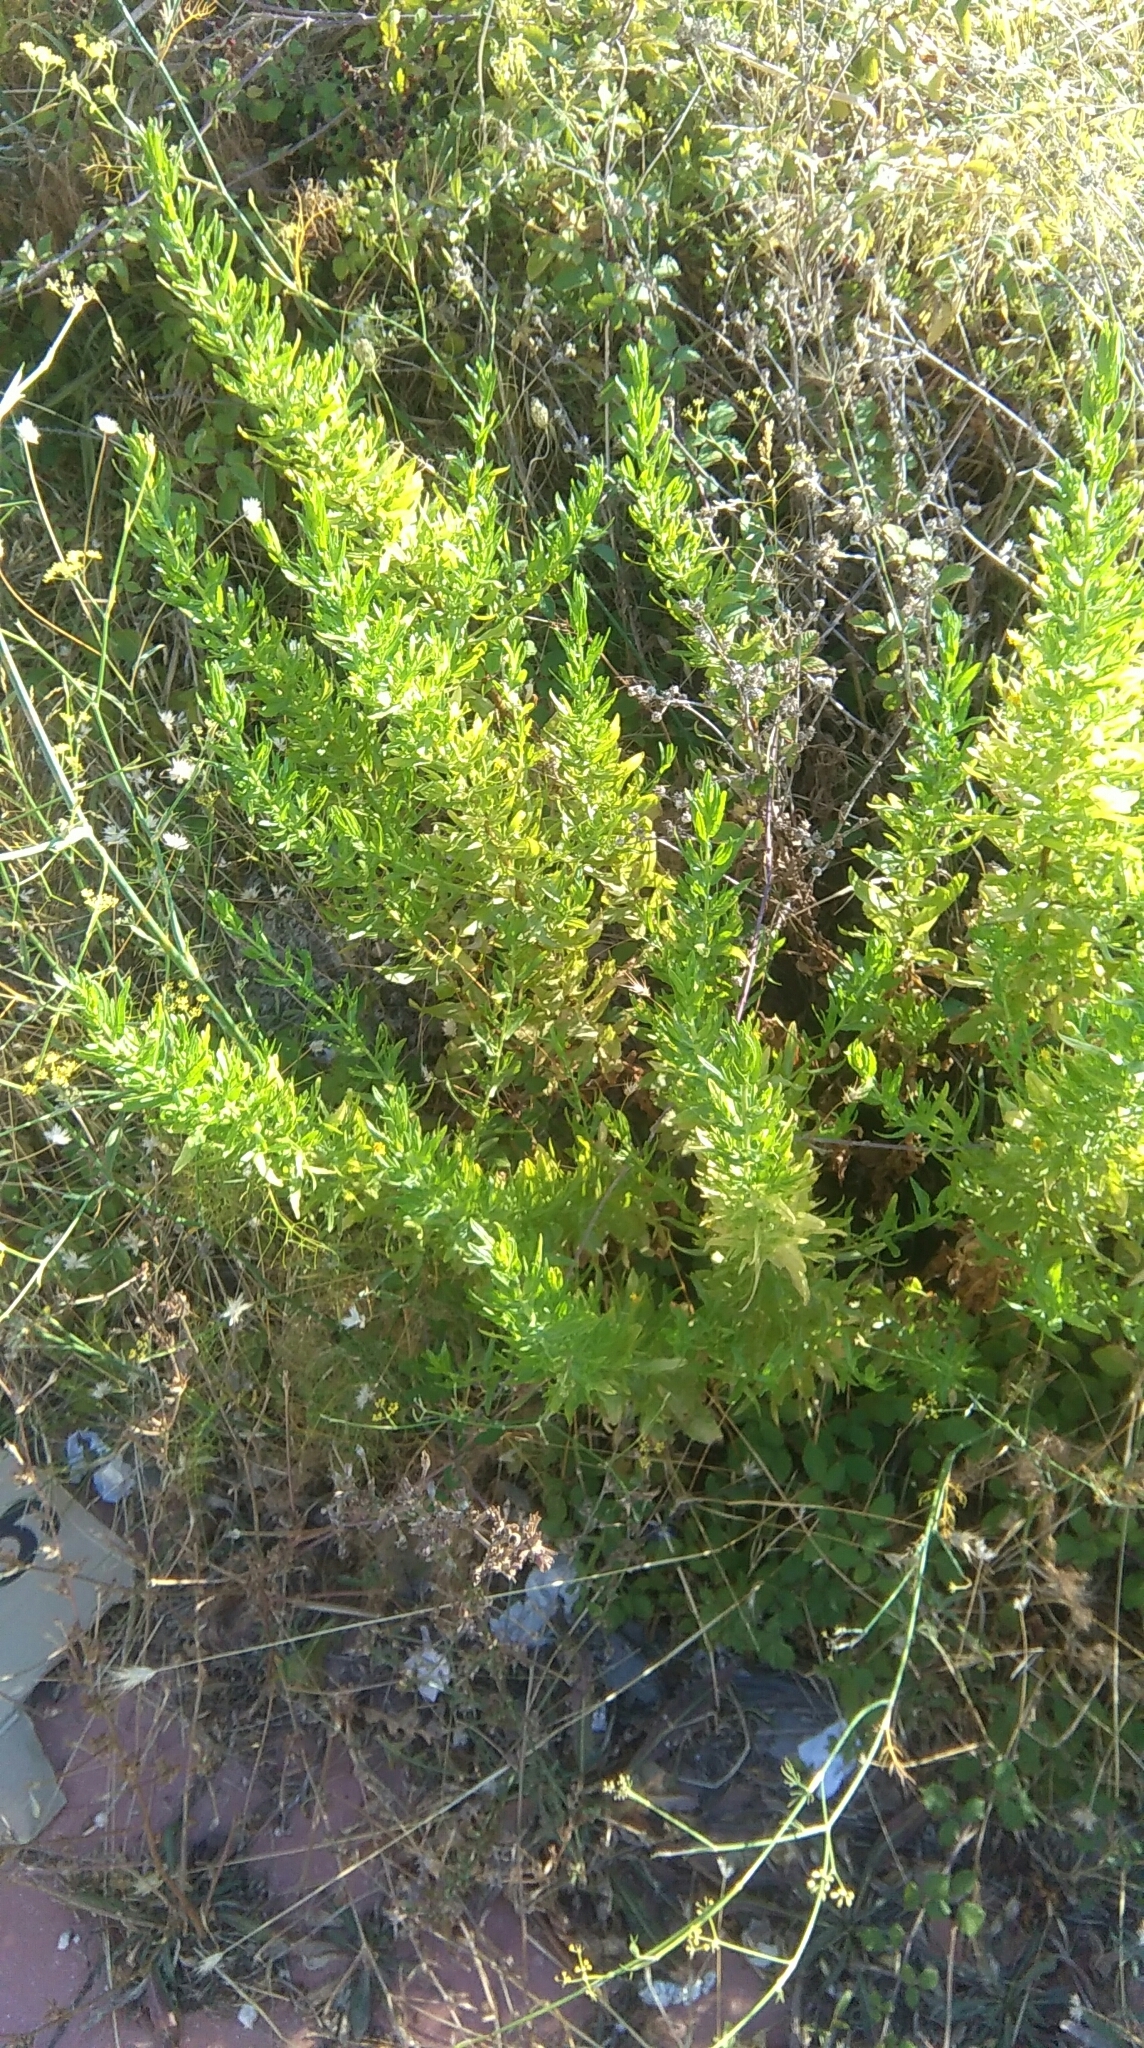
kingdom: Plantae
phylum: Tracheophyta
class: Magnoliopsida
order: Asterales
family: Asteraceae
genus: Dittrichia
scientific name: Dittrichia viscosa
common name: Woody fleabane
